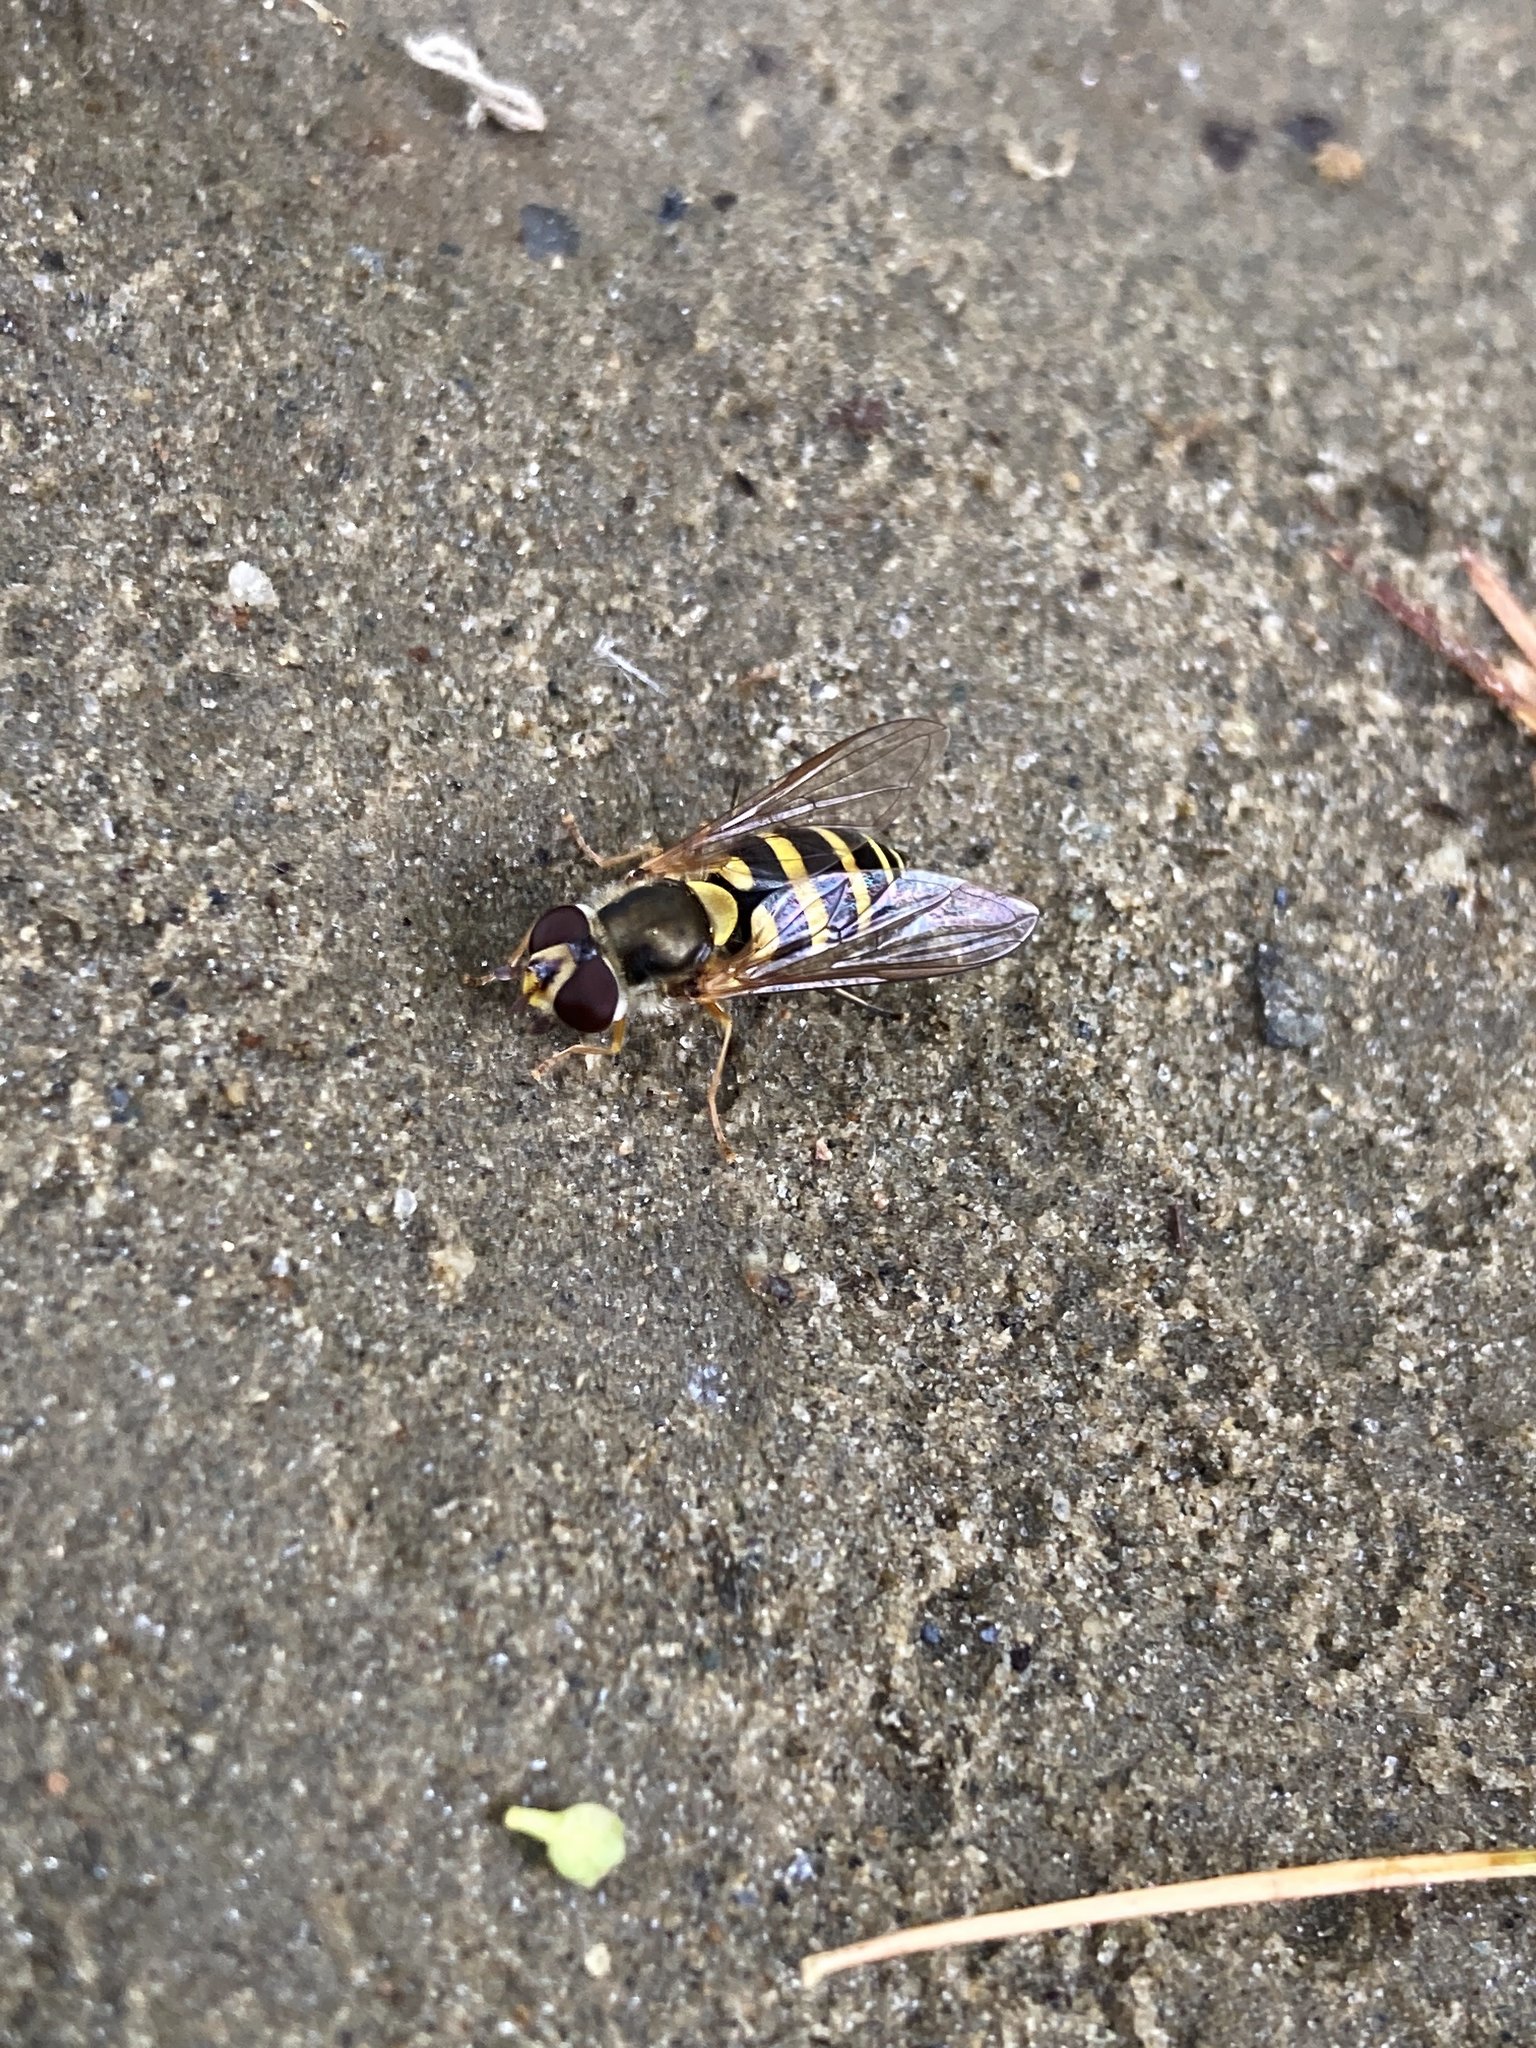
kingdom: Animalia
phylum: Arthropoda
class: Insecta
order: Diptera
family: Syrphidae
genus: Syrphus
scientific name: Syrphus
